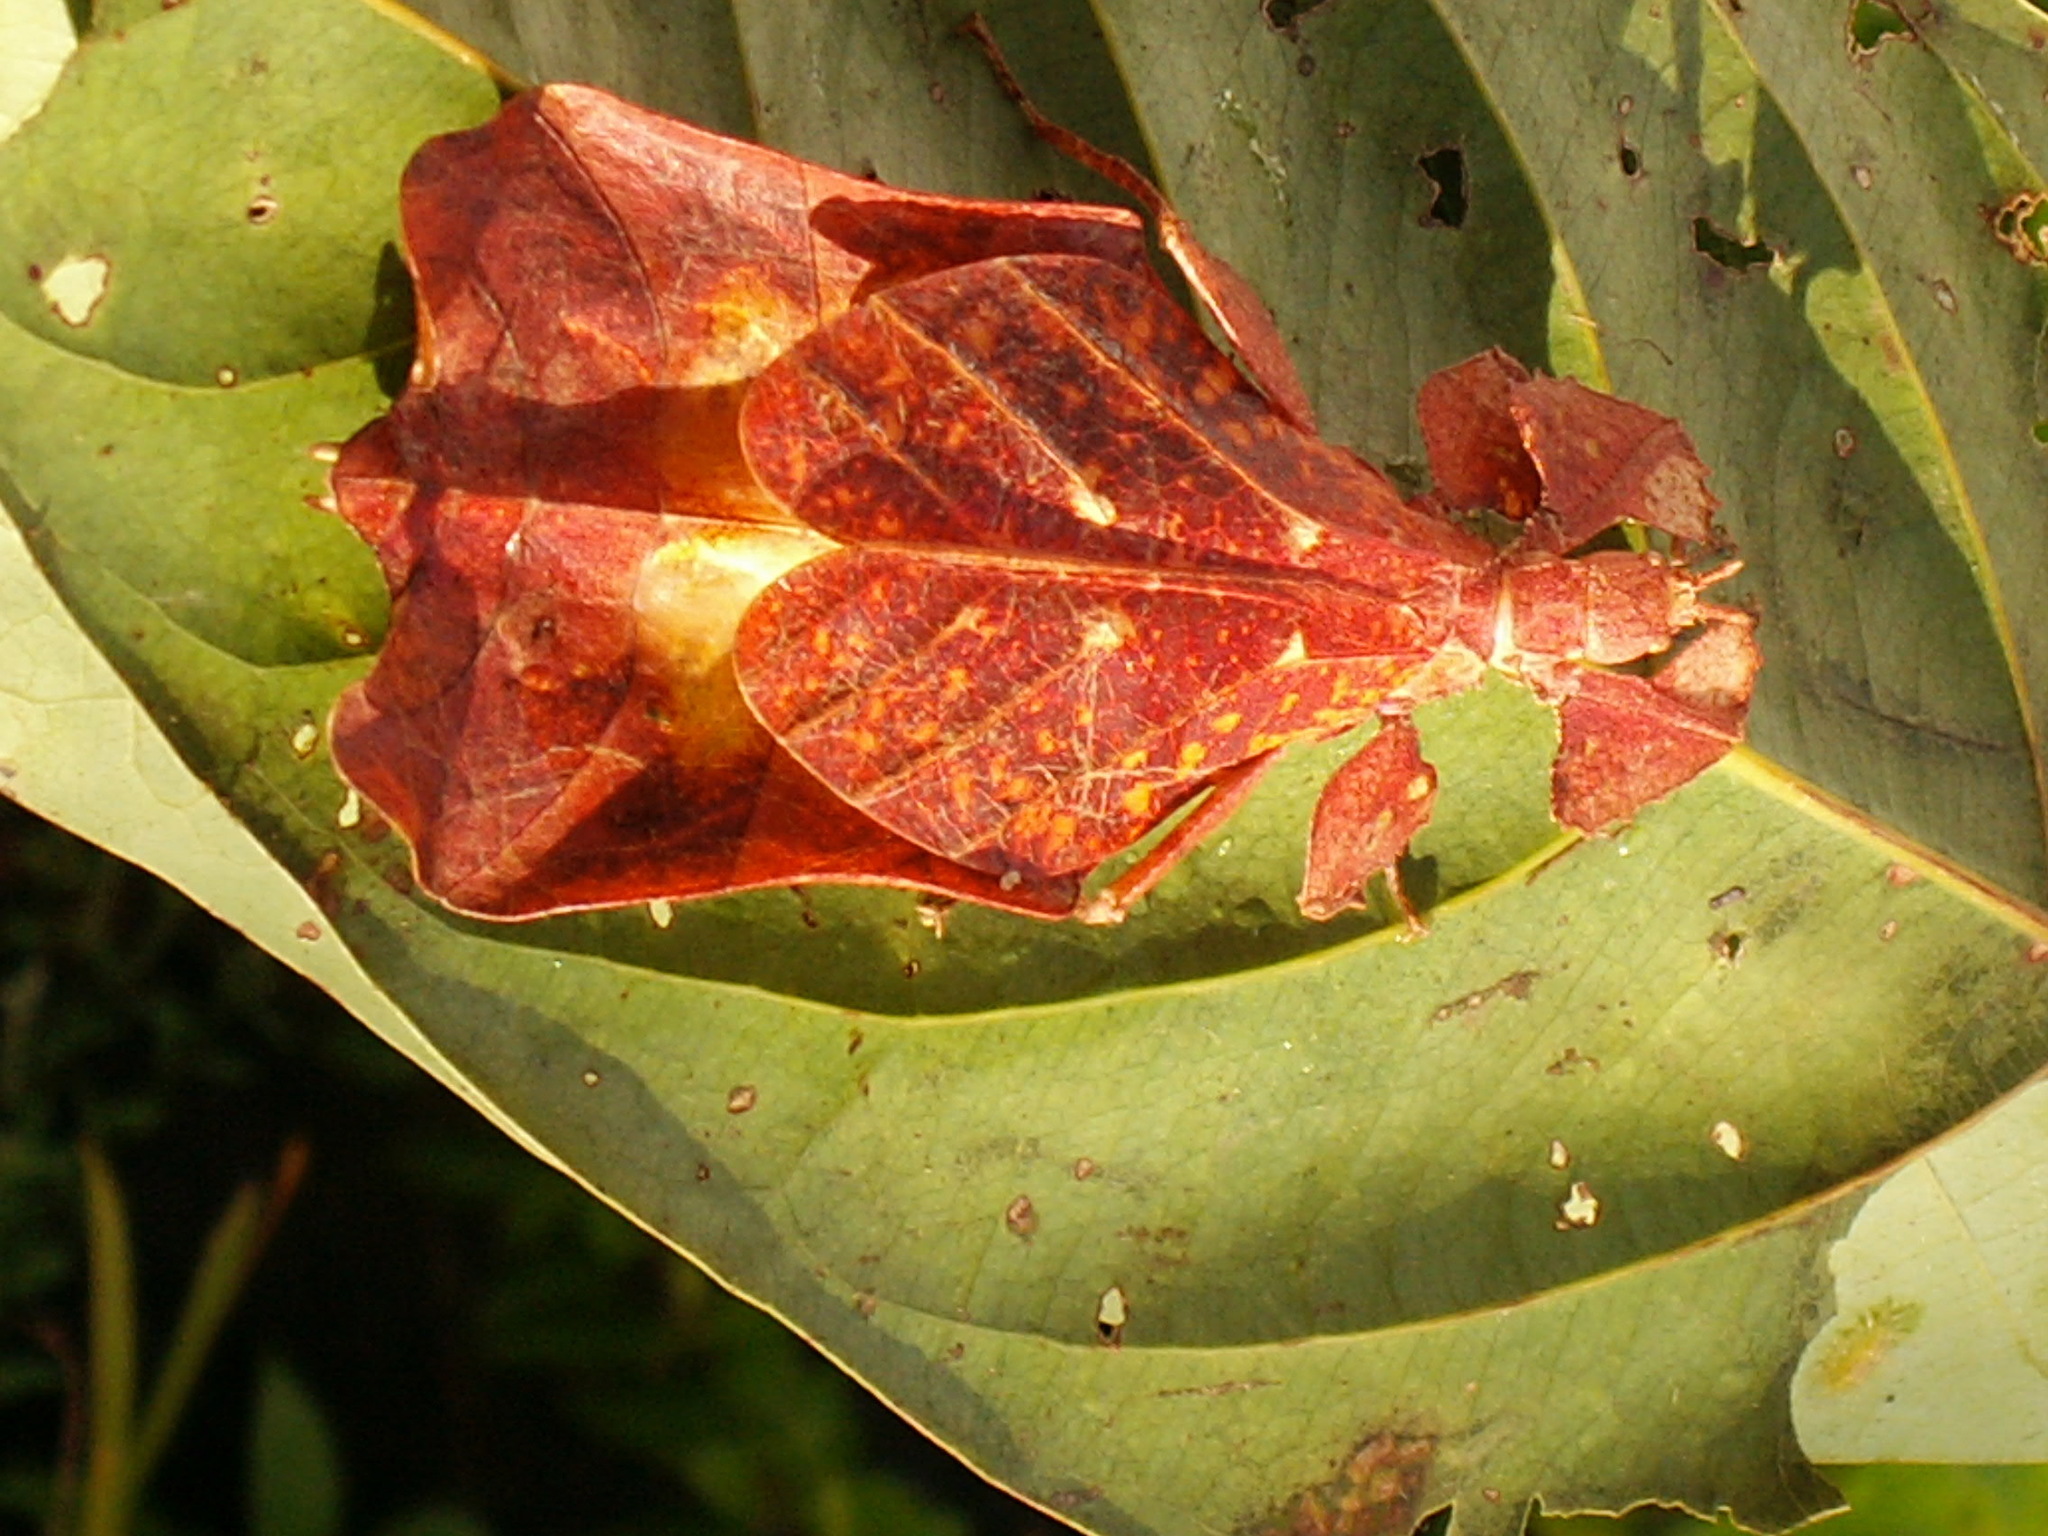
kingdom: Animalia
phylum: Arthropoda
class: Insecta
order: Phasmida
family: Phylliidae
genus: Nanophyllium
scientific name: Nanophyllium asekiensis
